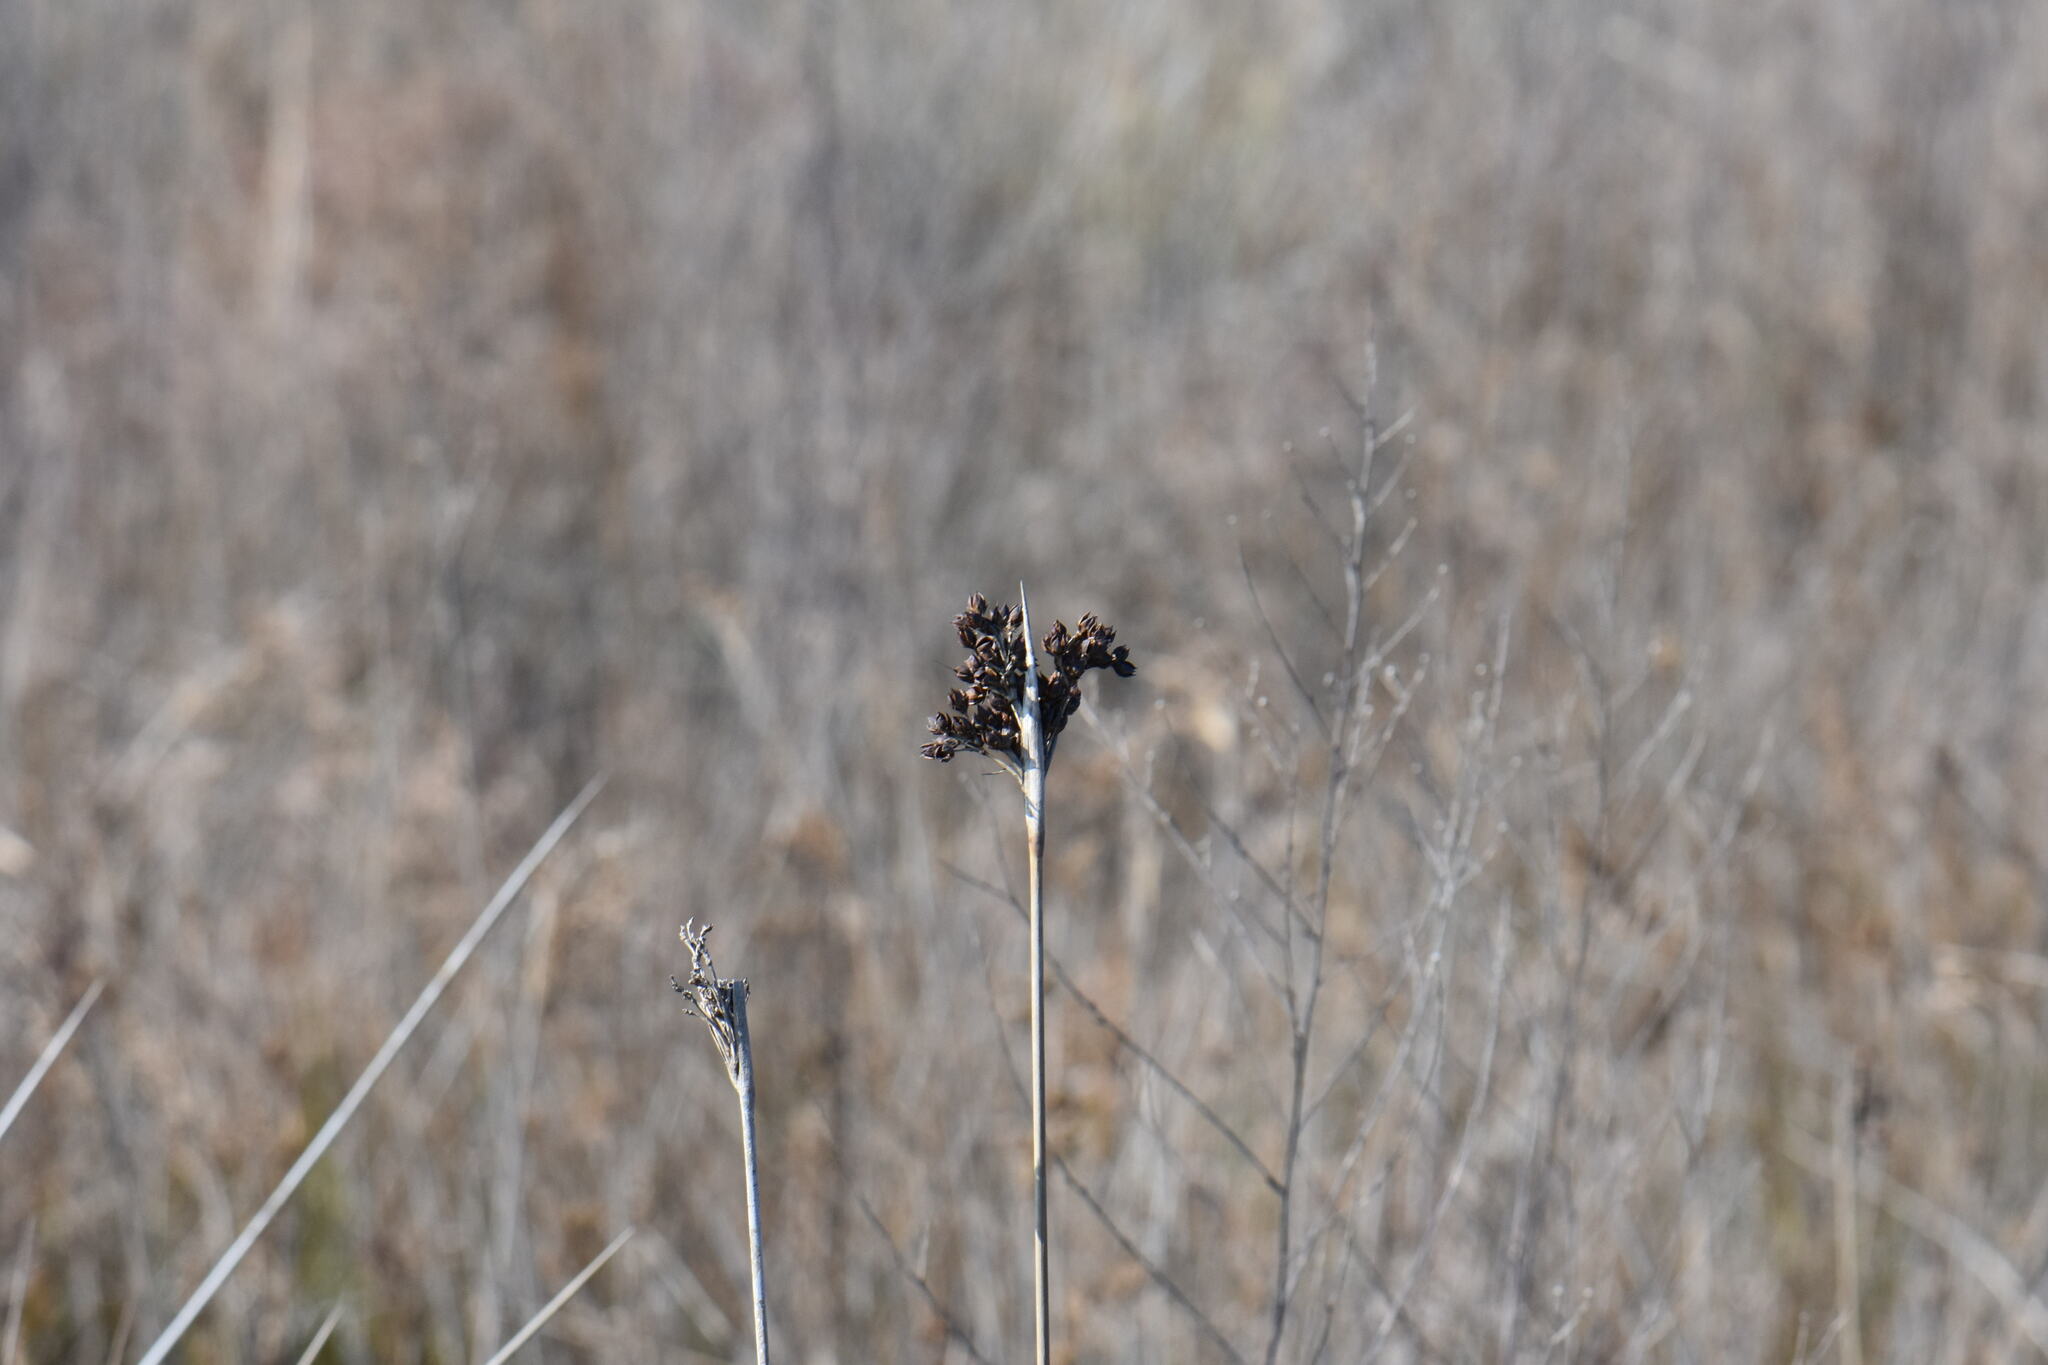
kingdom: Plantae
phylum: Tracheophyta
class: Liliopsida
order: Poales
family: Juncaceae
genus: Juncus
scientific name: Juncus acutus
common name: Sharp rush
